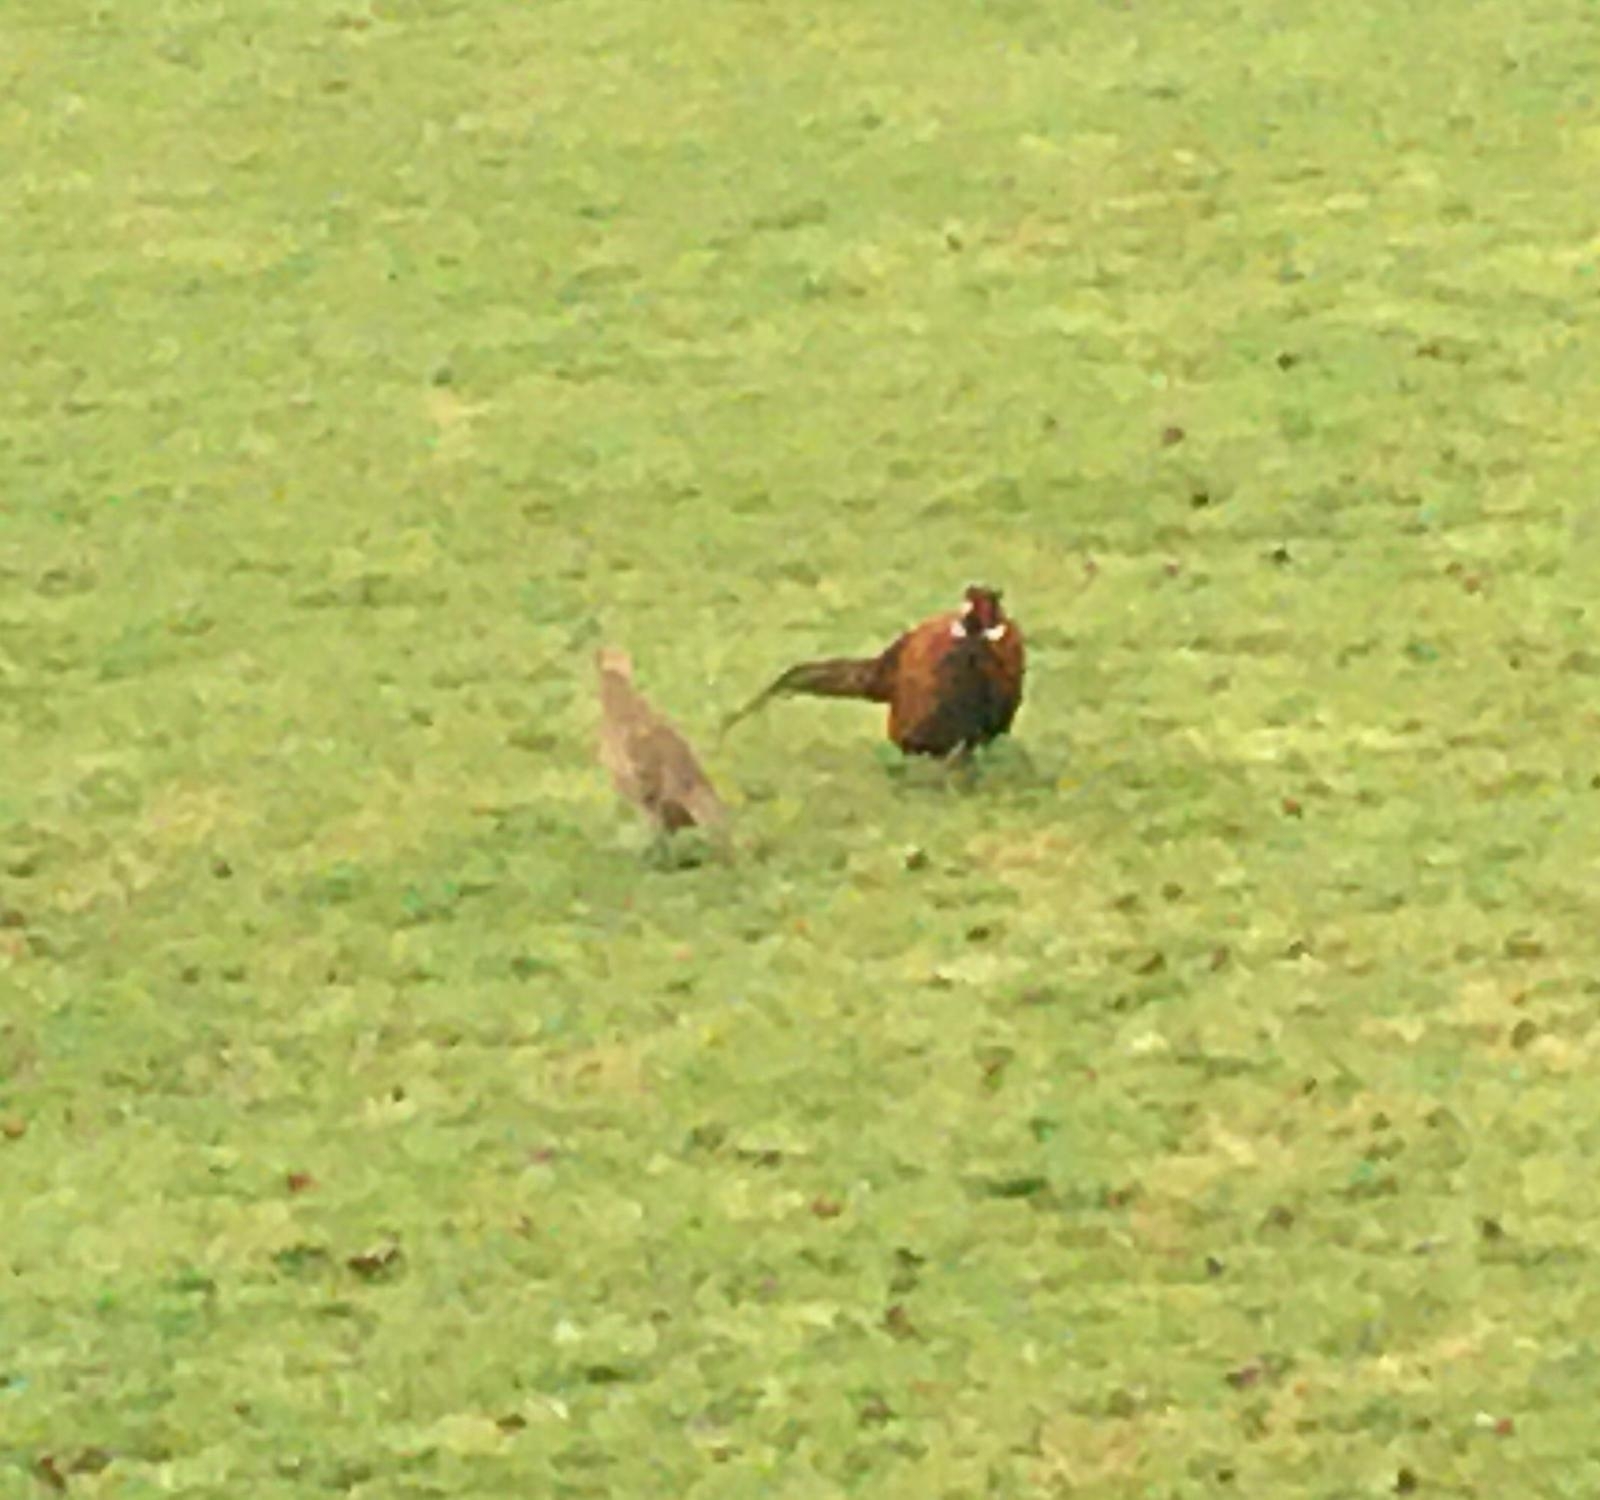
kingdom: Animalia
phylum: Chordata
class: Aves
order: Galliformes
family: Phasianidae
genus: Phasianus
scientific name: Phasianus colchicus
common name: Common pheasant
